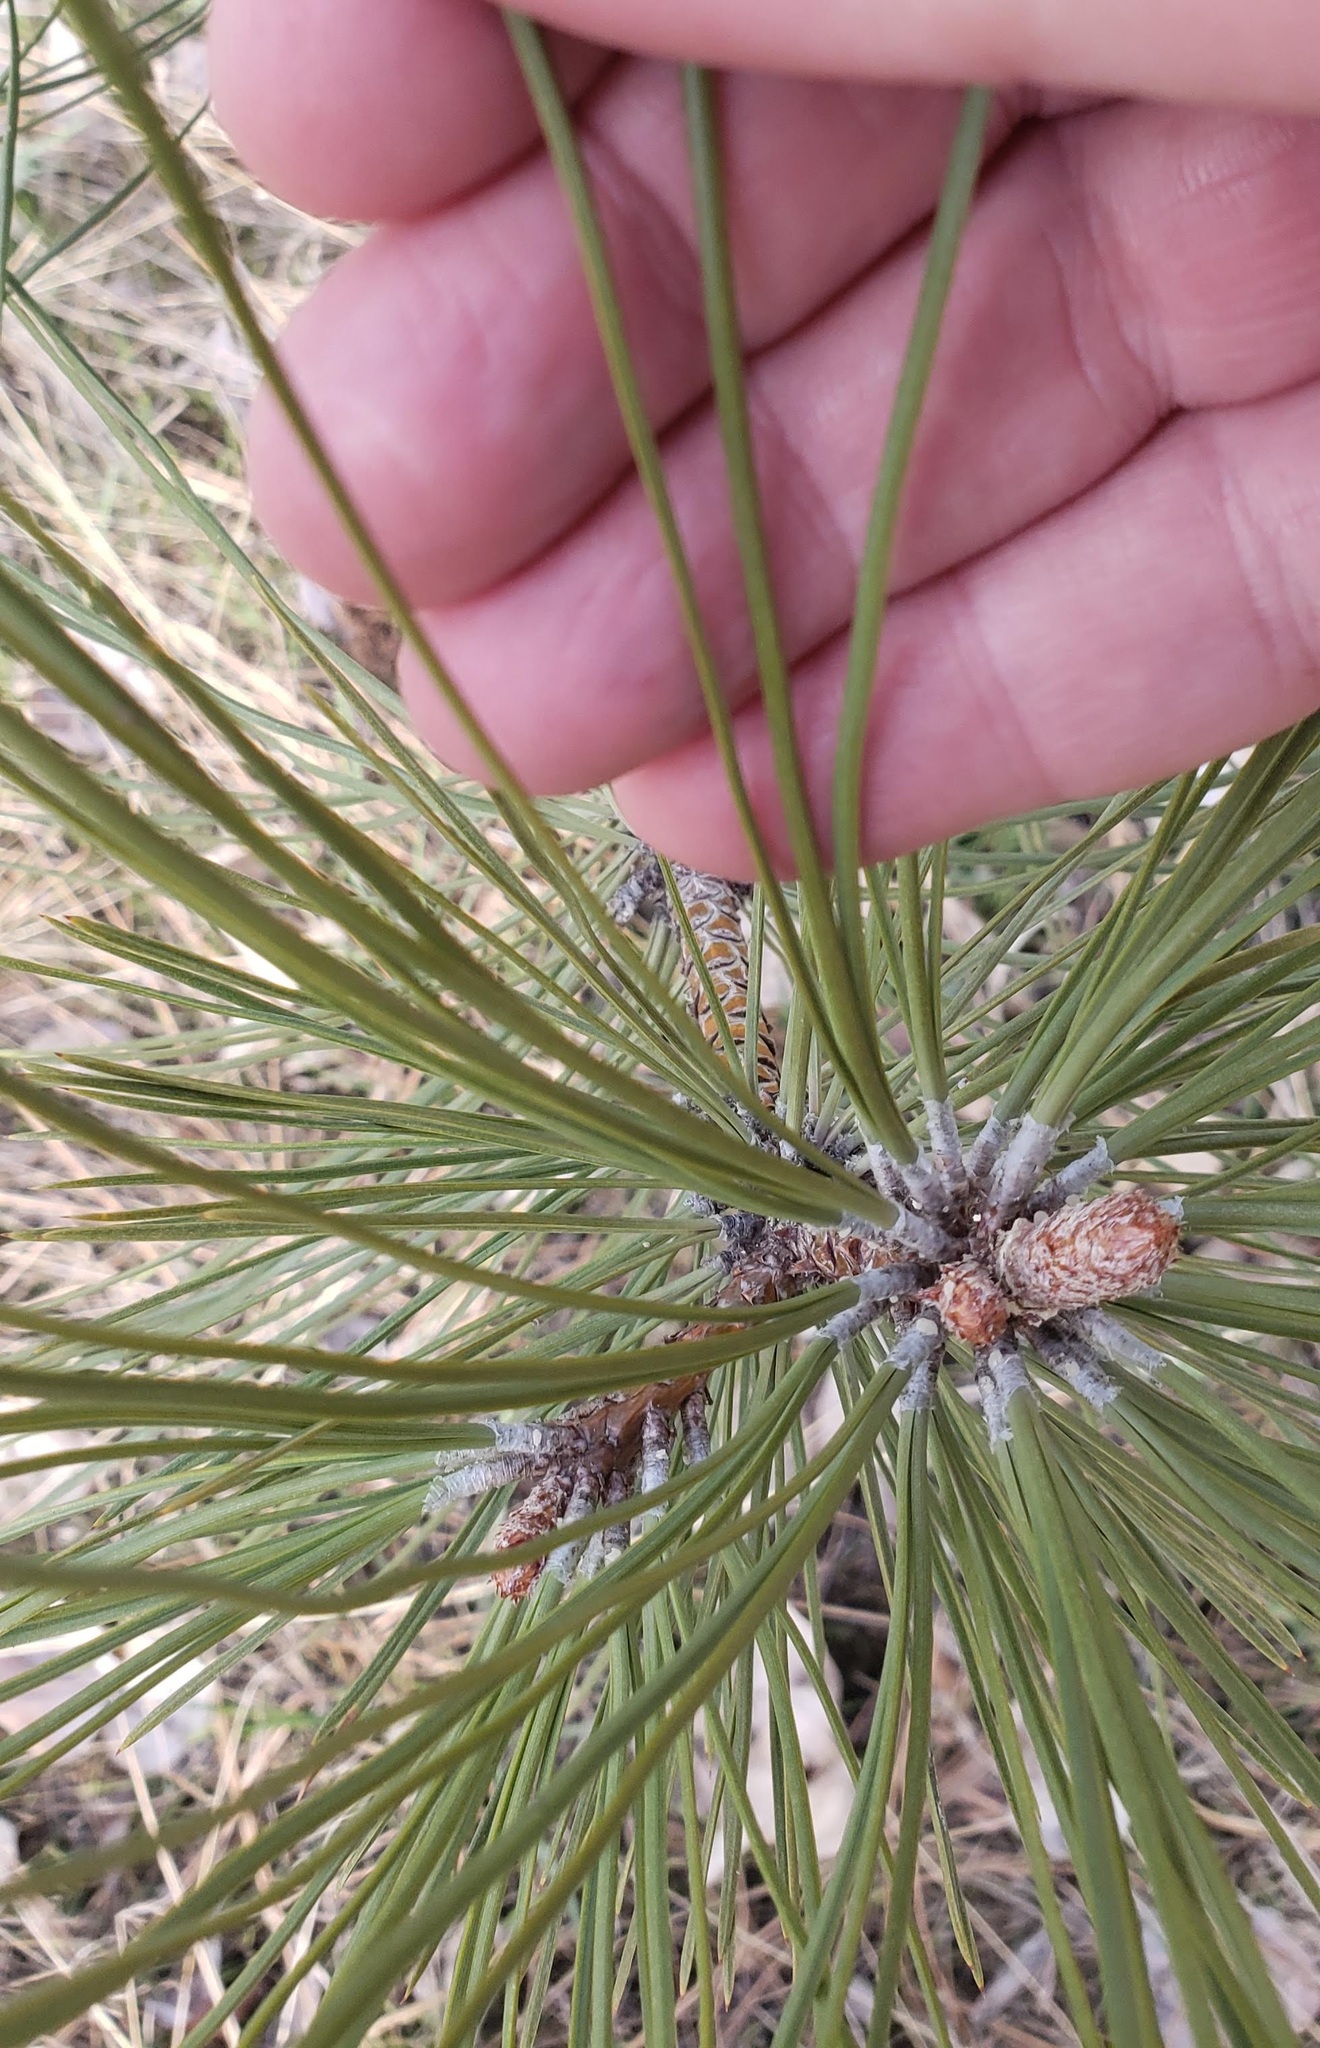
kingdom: Plantae
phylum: Tracheophyta
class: Pinopsida
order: Pinales
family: Pinaceae
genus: Pinus
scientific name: Pinus ponderosa
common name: Western yellow-pine
